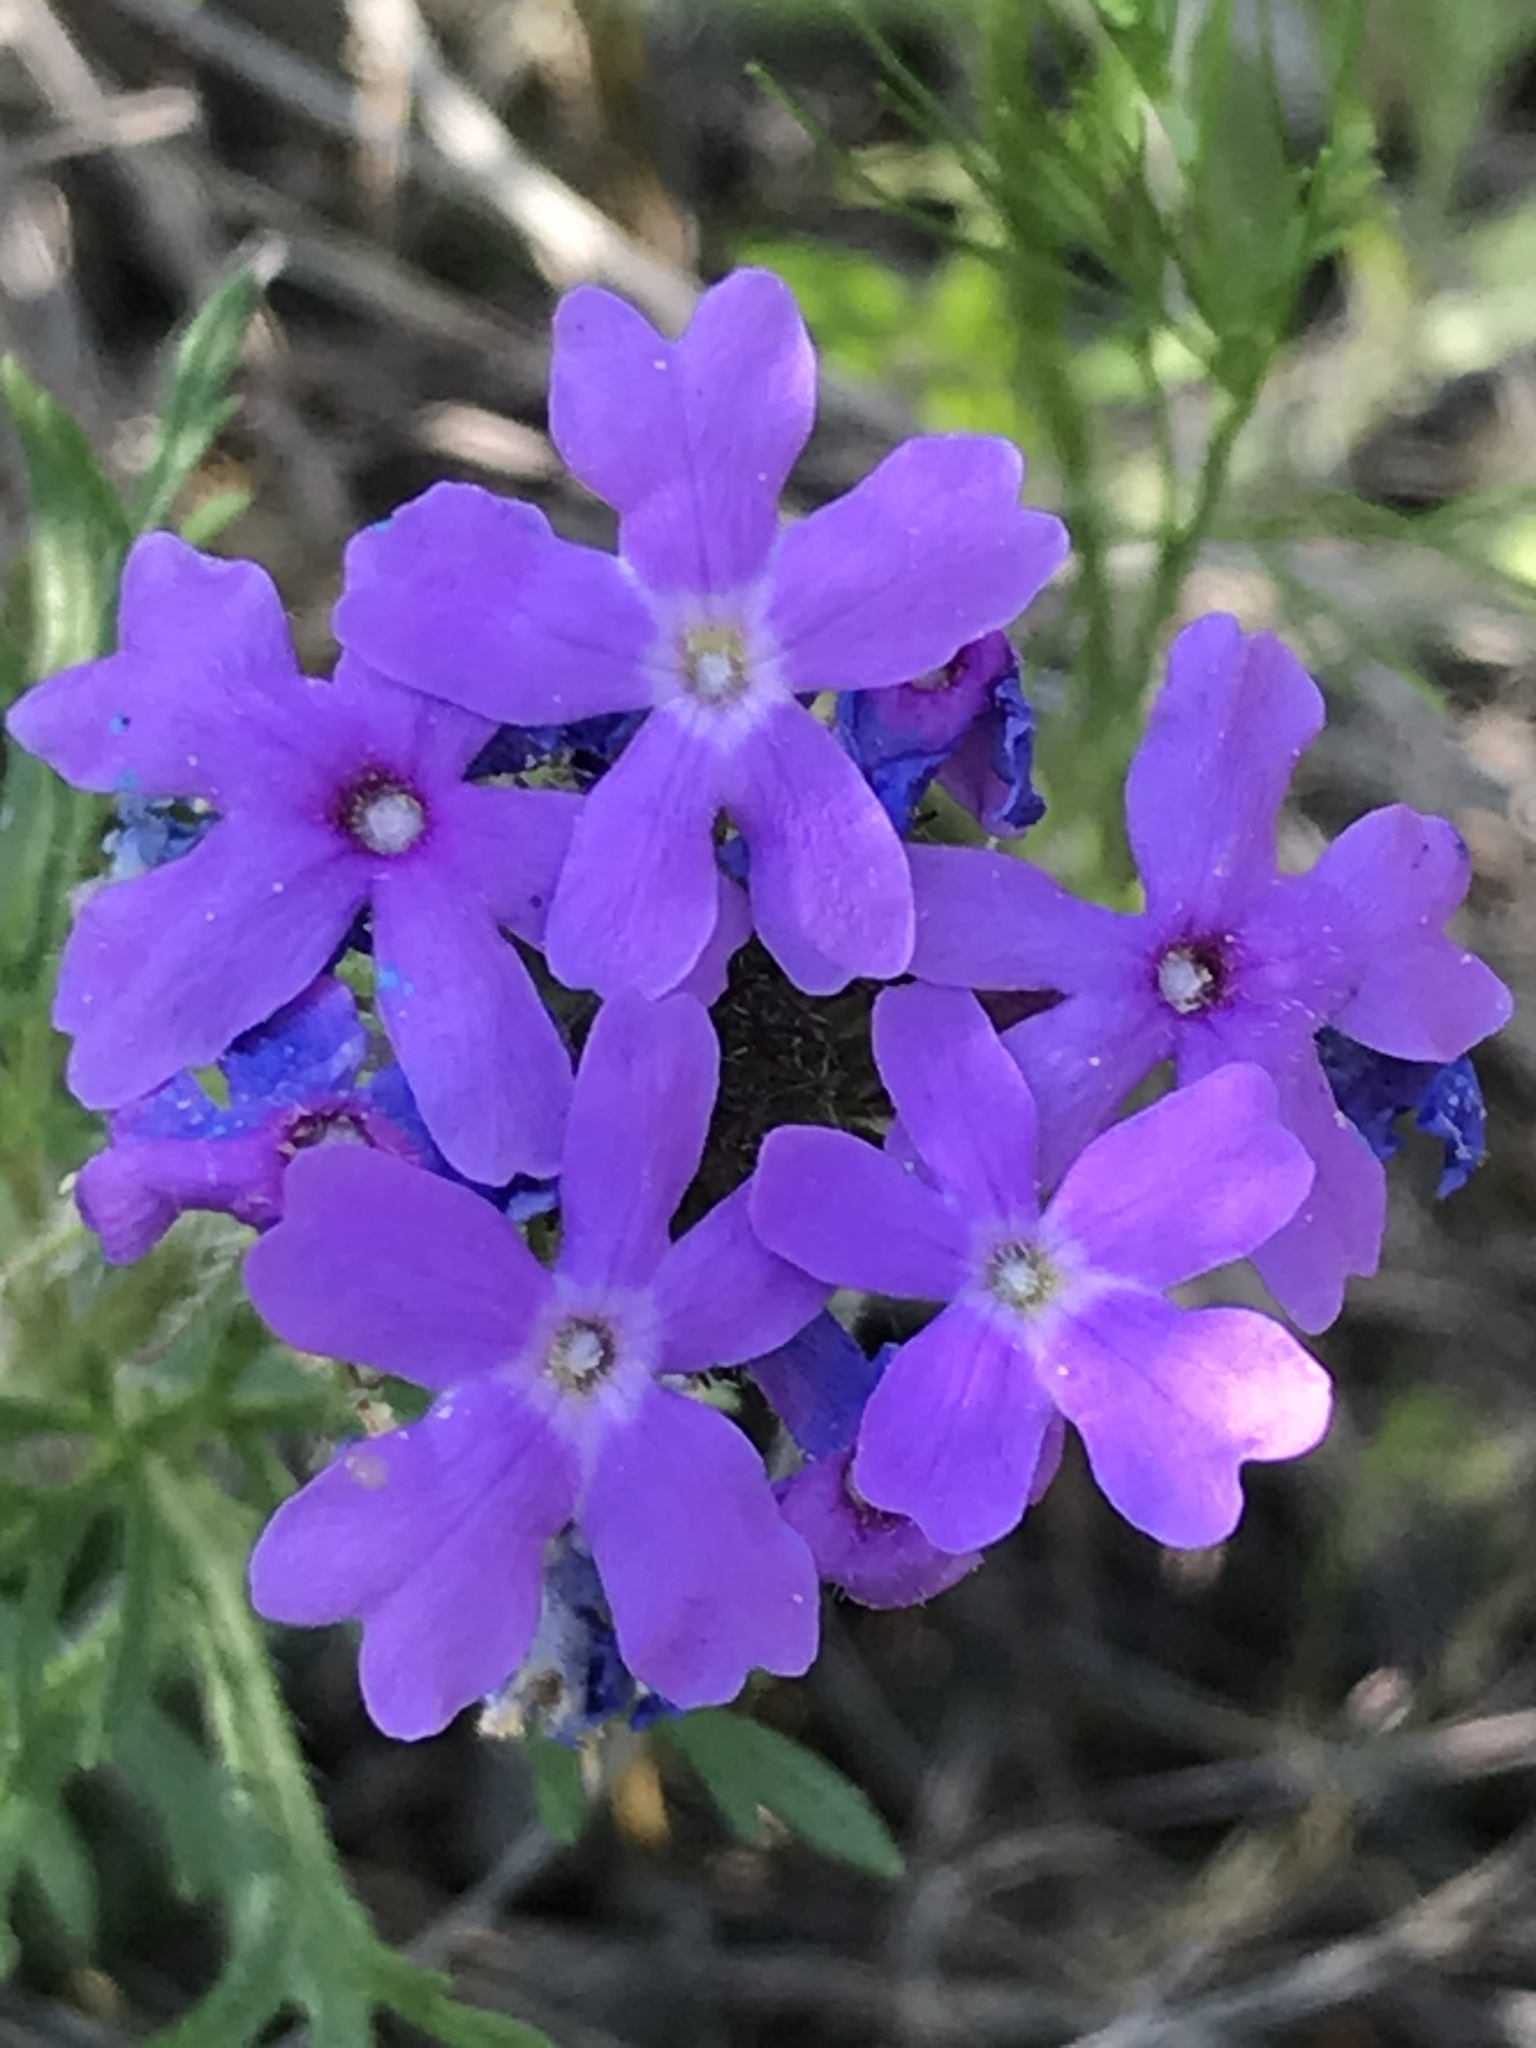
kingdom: Plantae
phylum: Tracheophyta
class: Magnoliopsida
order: Lamiales
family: Verbenaceae
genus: Verbena
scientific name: Verbena bipinnatifida
